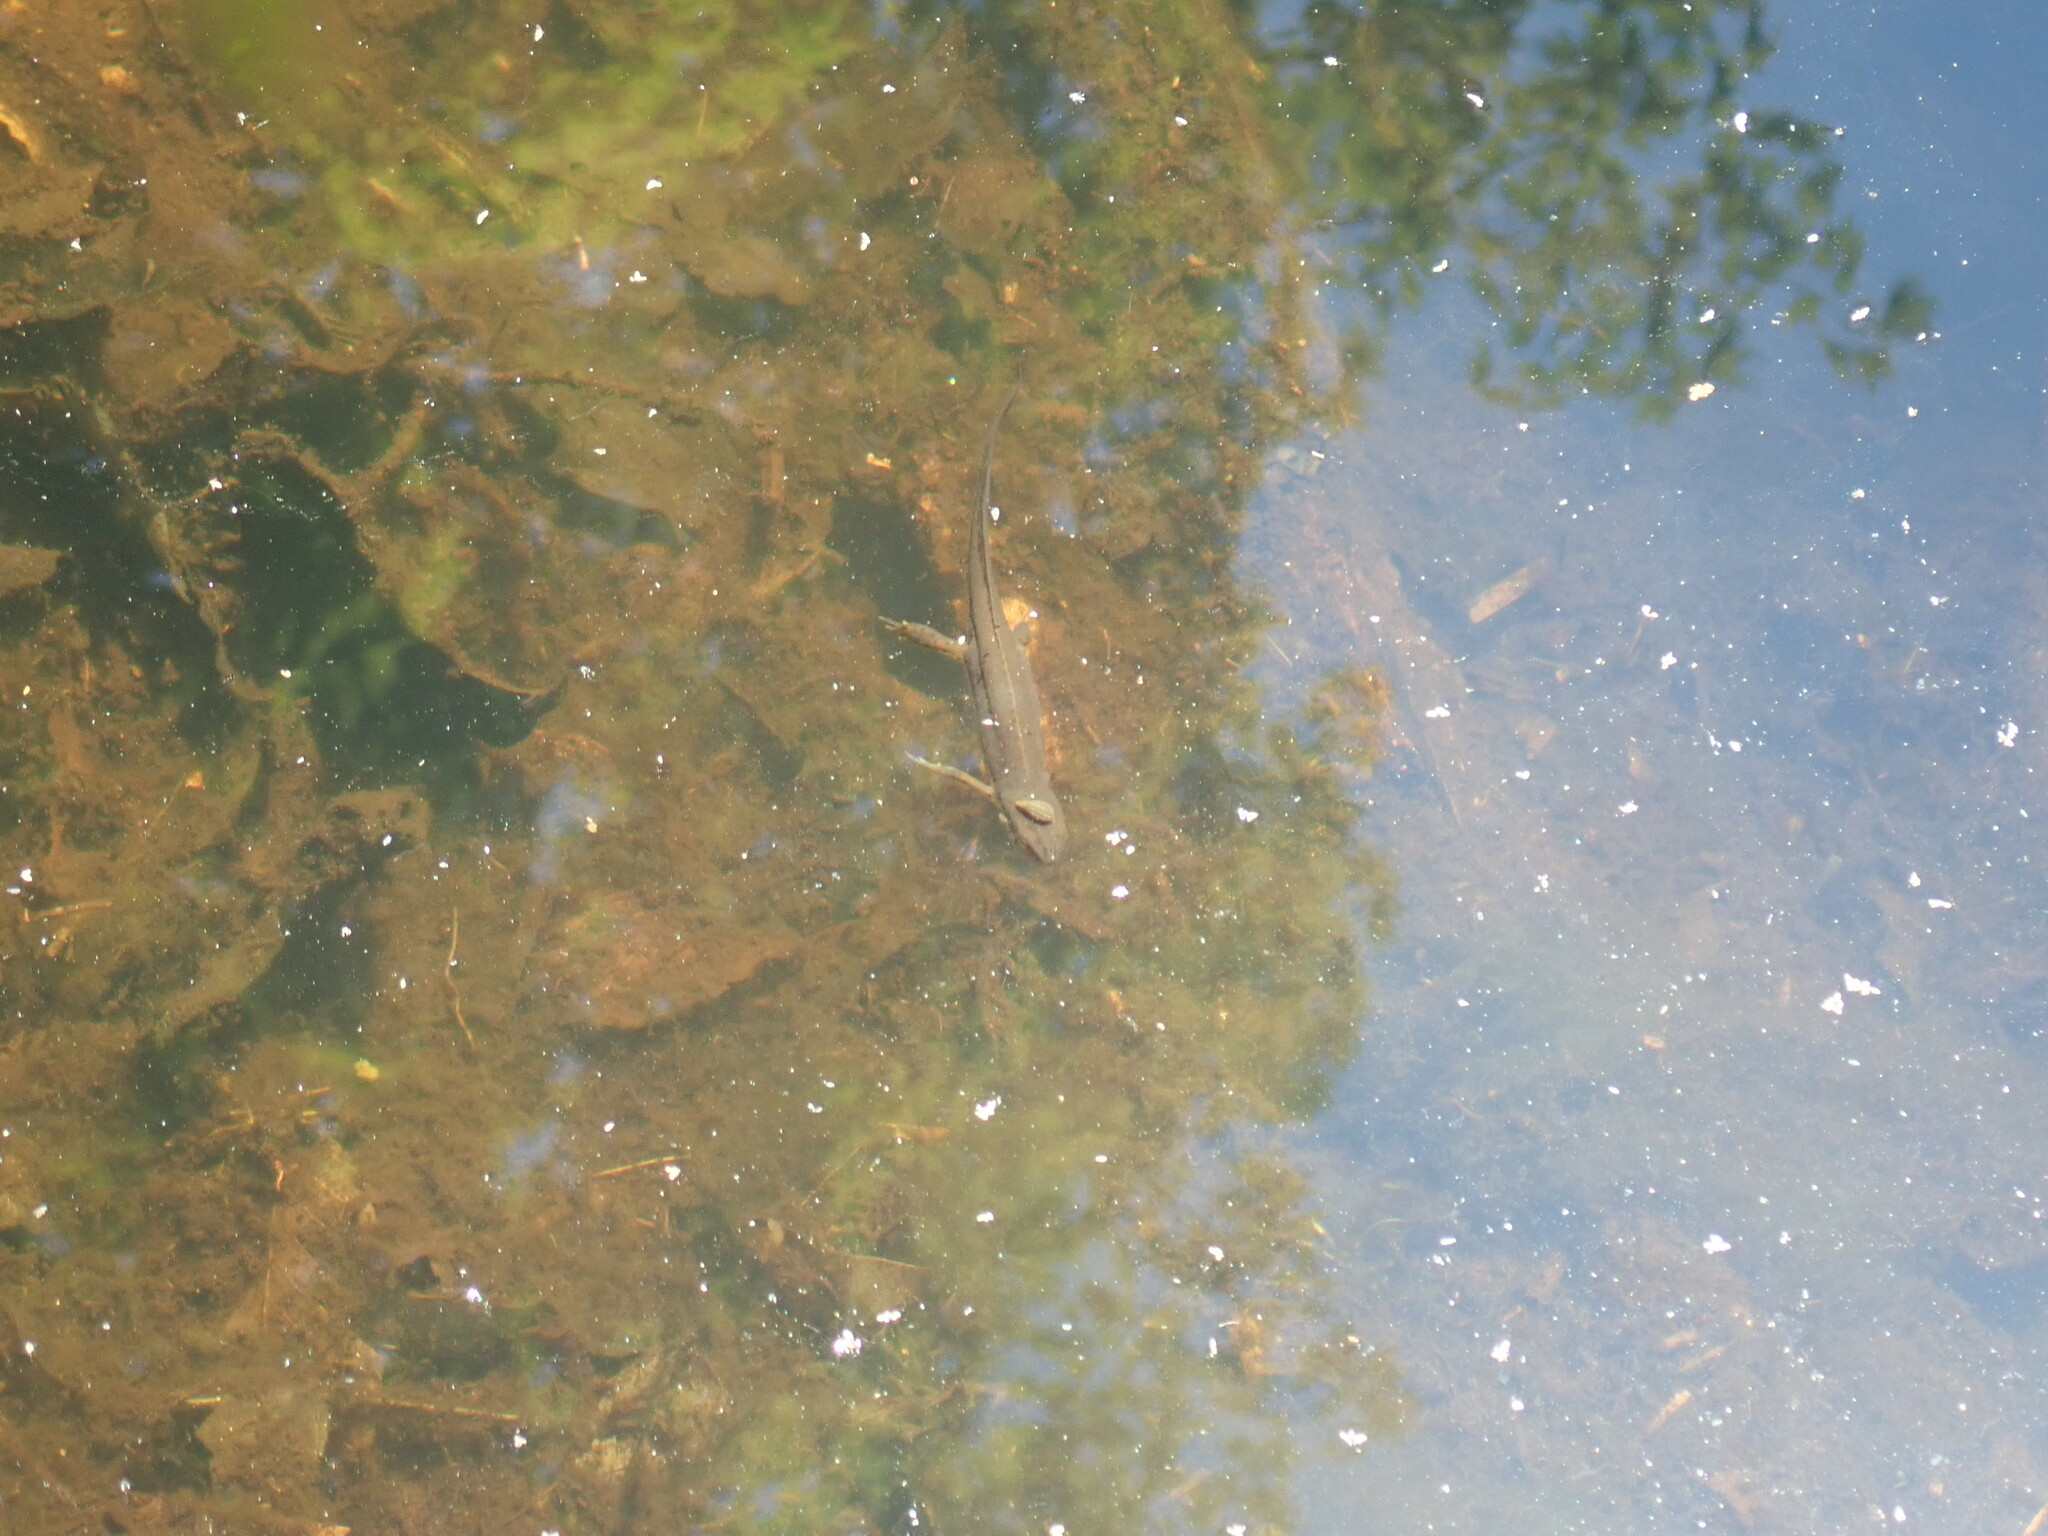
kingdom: Animalia
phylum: Chordata
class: Amphibia
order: Caudata
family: Salamandridae
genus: Notophthalmus
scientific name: Notophthalmus viridescens
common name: Eastern newt
